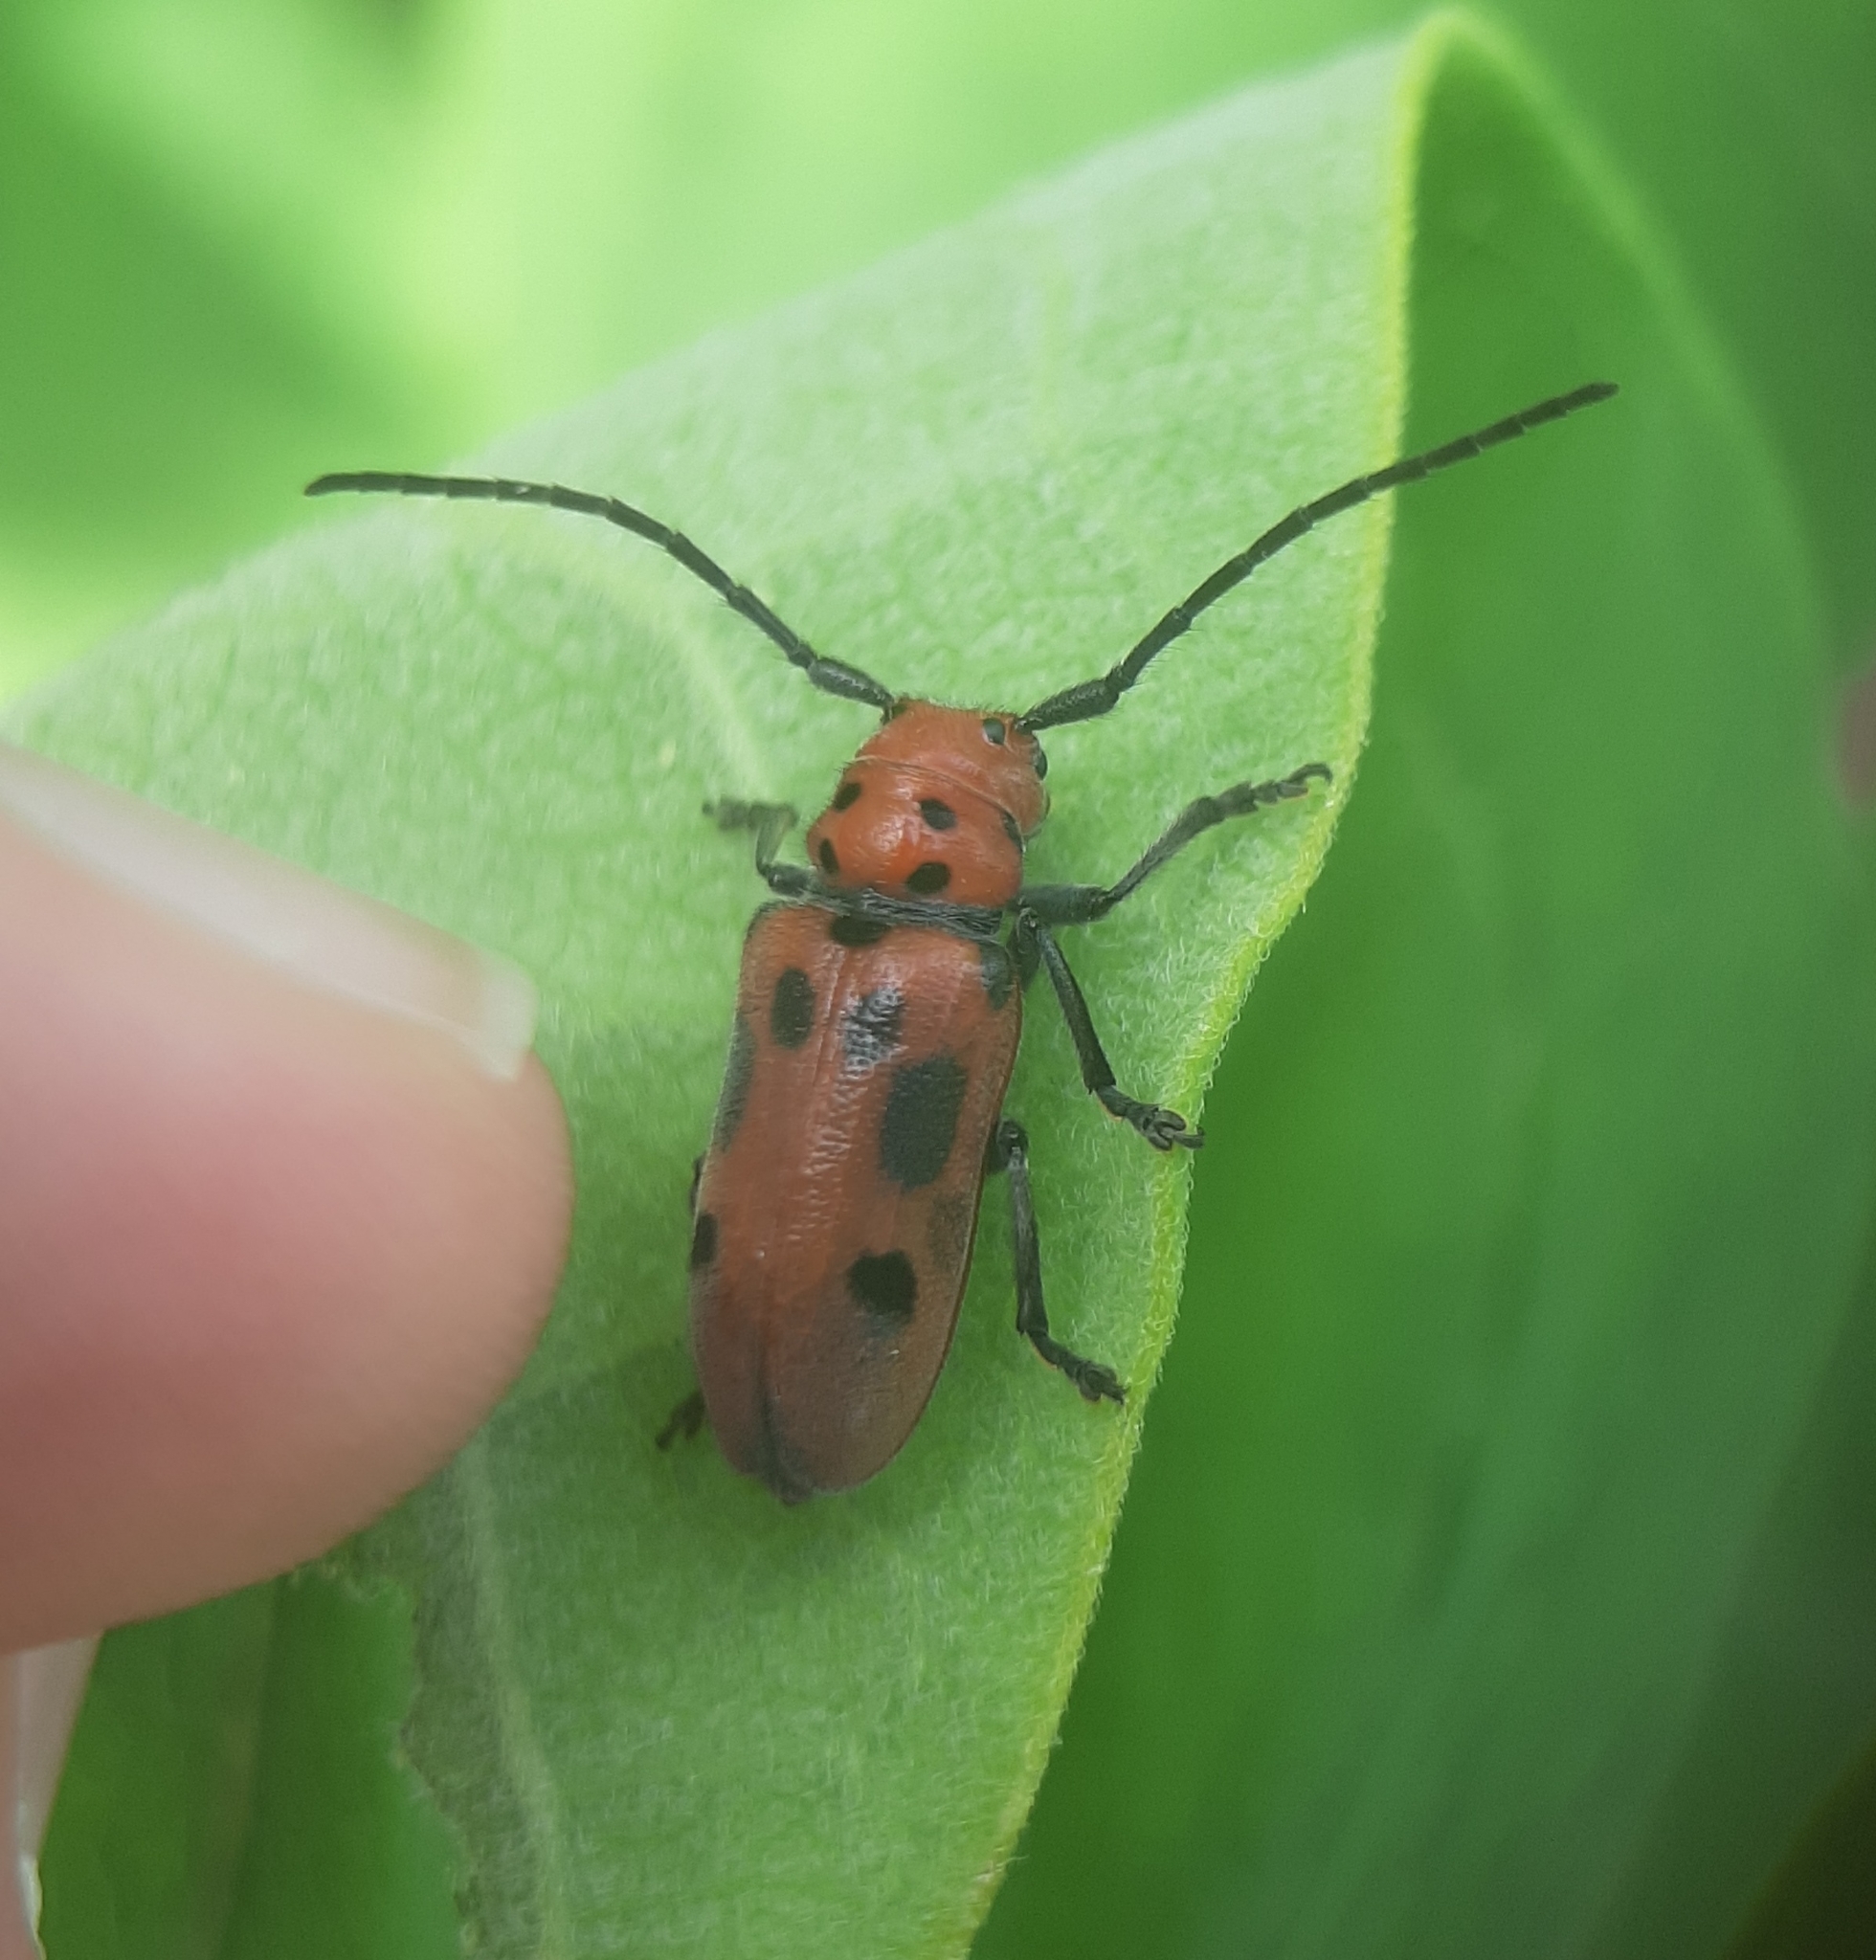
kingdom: Animalia
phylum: Arthropoda
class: Insecta
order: Coleoptera
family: Cerambycidae
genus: Tetraopes
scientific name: Tetraopes tetrophthalmus
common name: Red milkweed beetle
